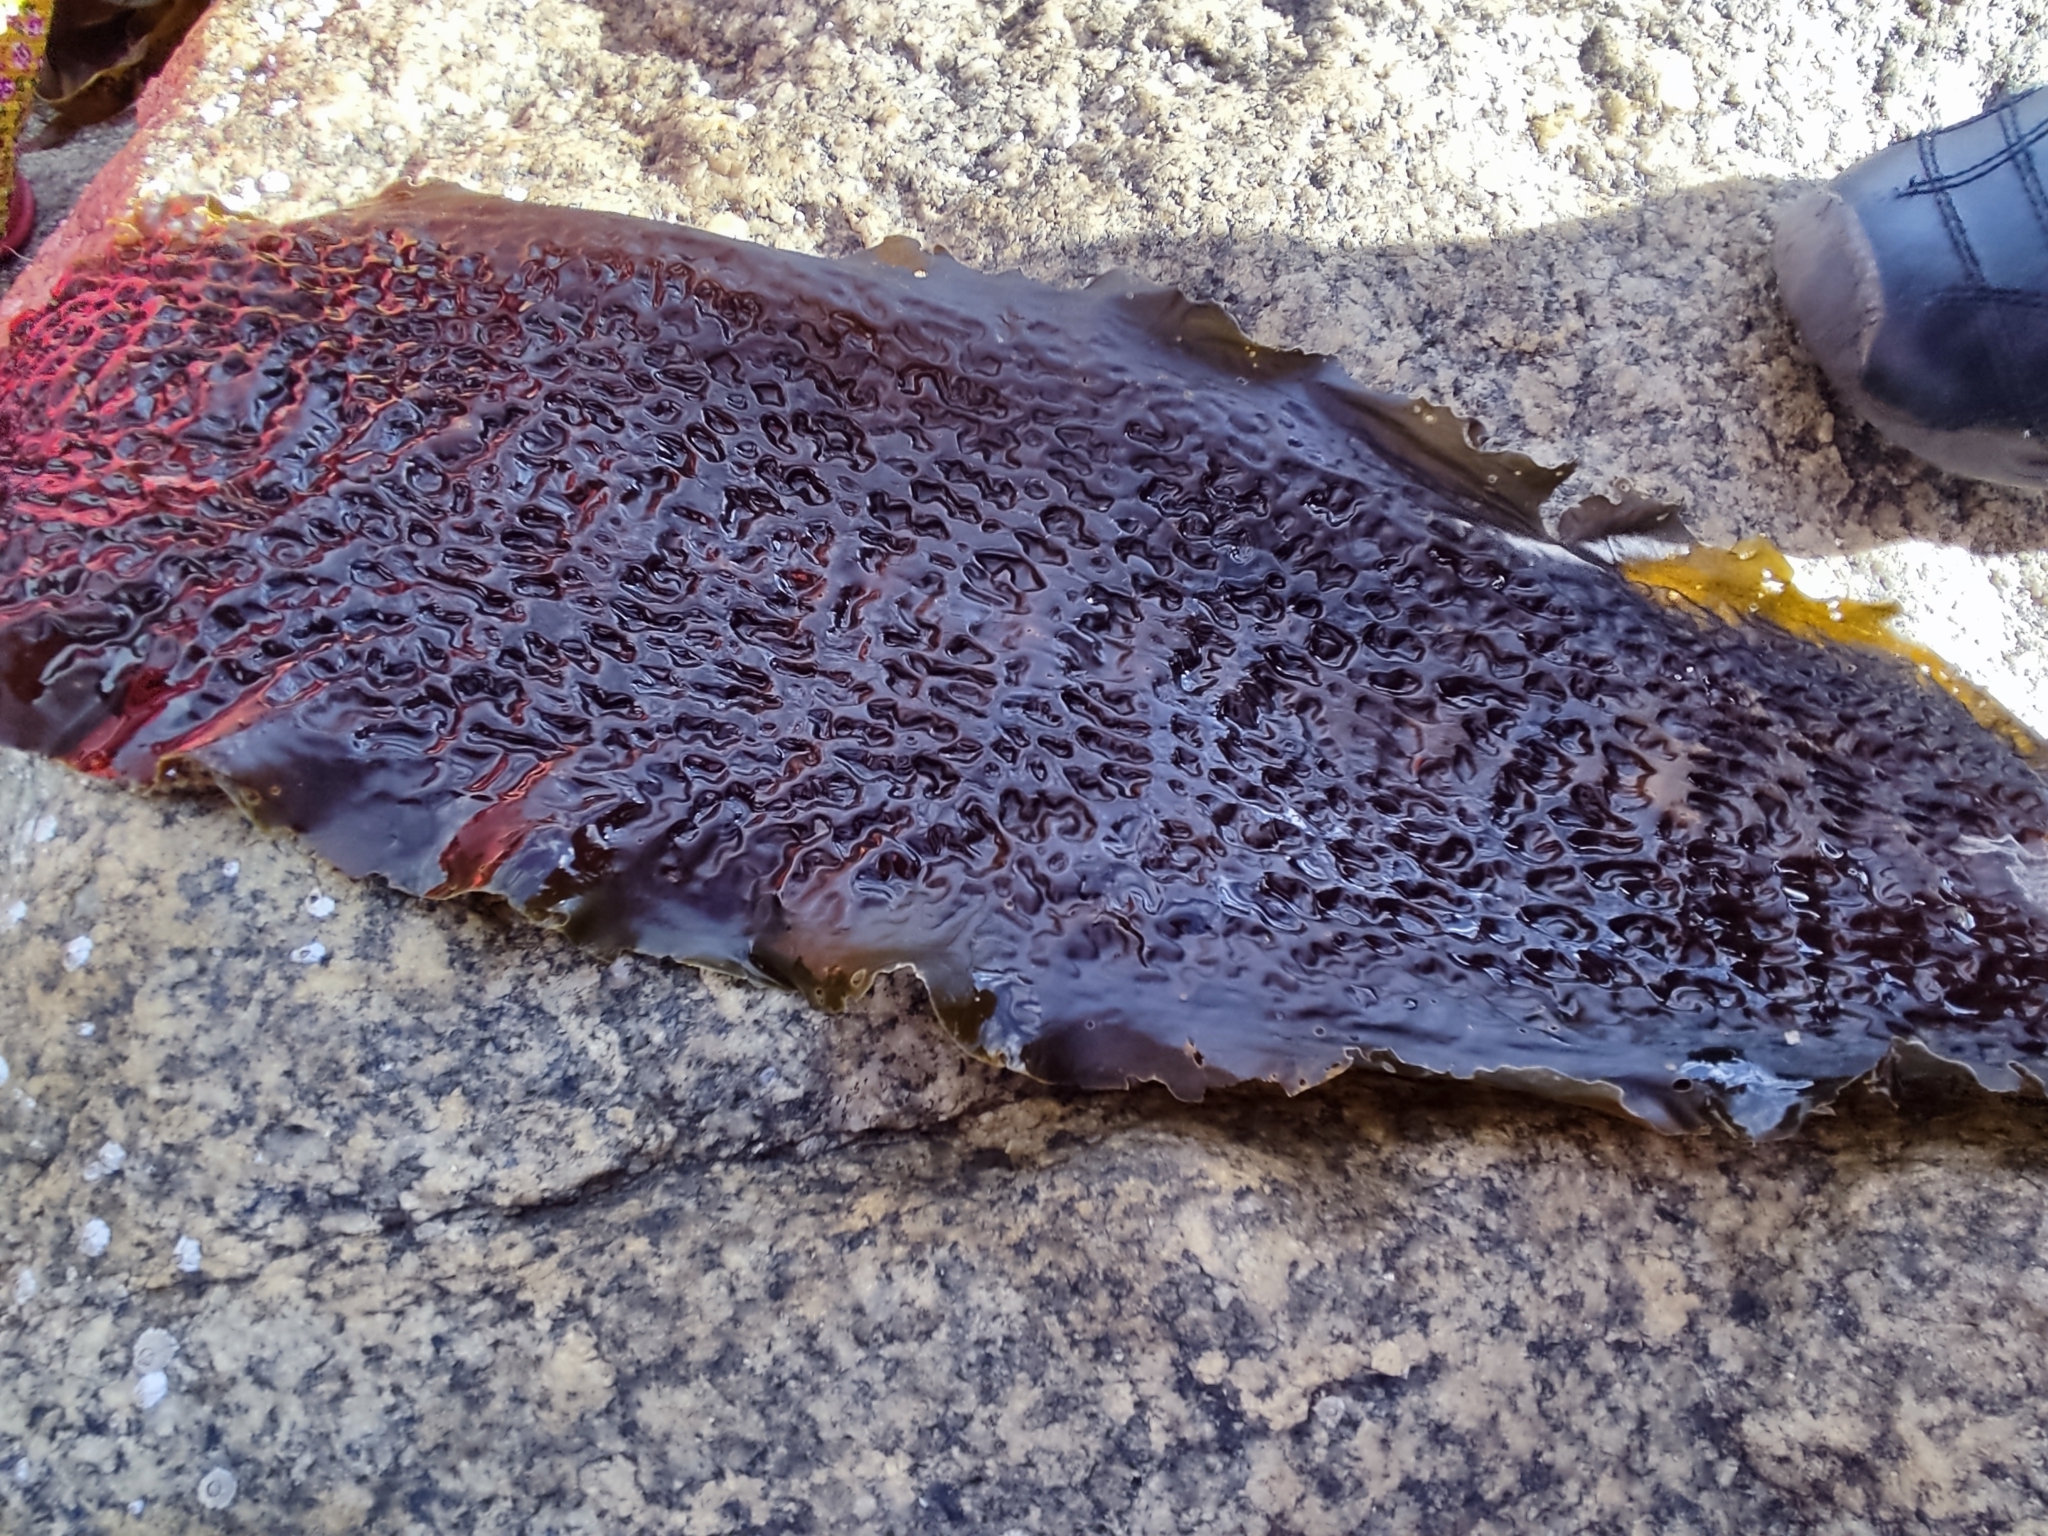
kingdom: Chromista
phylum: Ochrophyta
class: Phaeophyceae
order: Laminariales
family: Laminariaceae
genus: Saccharina
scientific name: Saccharina latissima
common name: Poor man's weather glass
